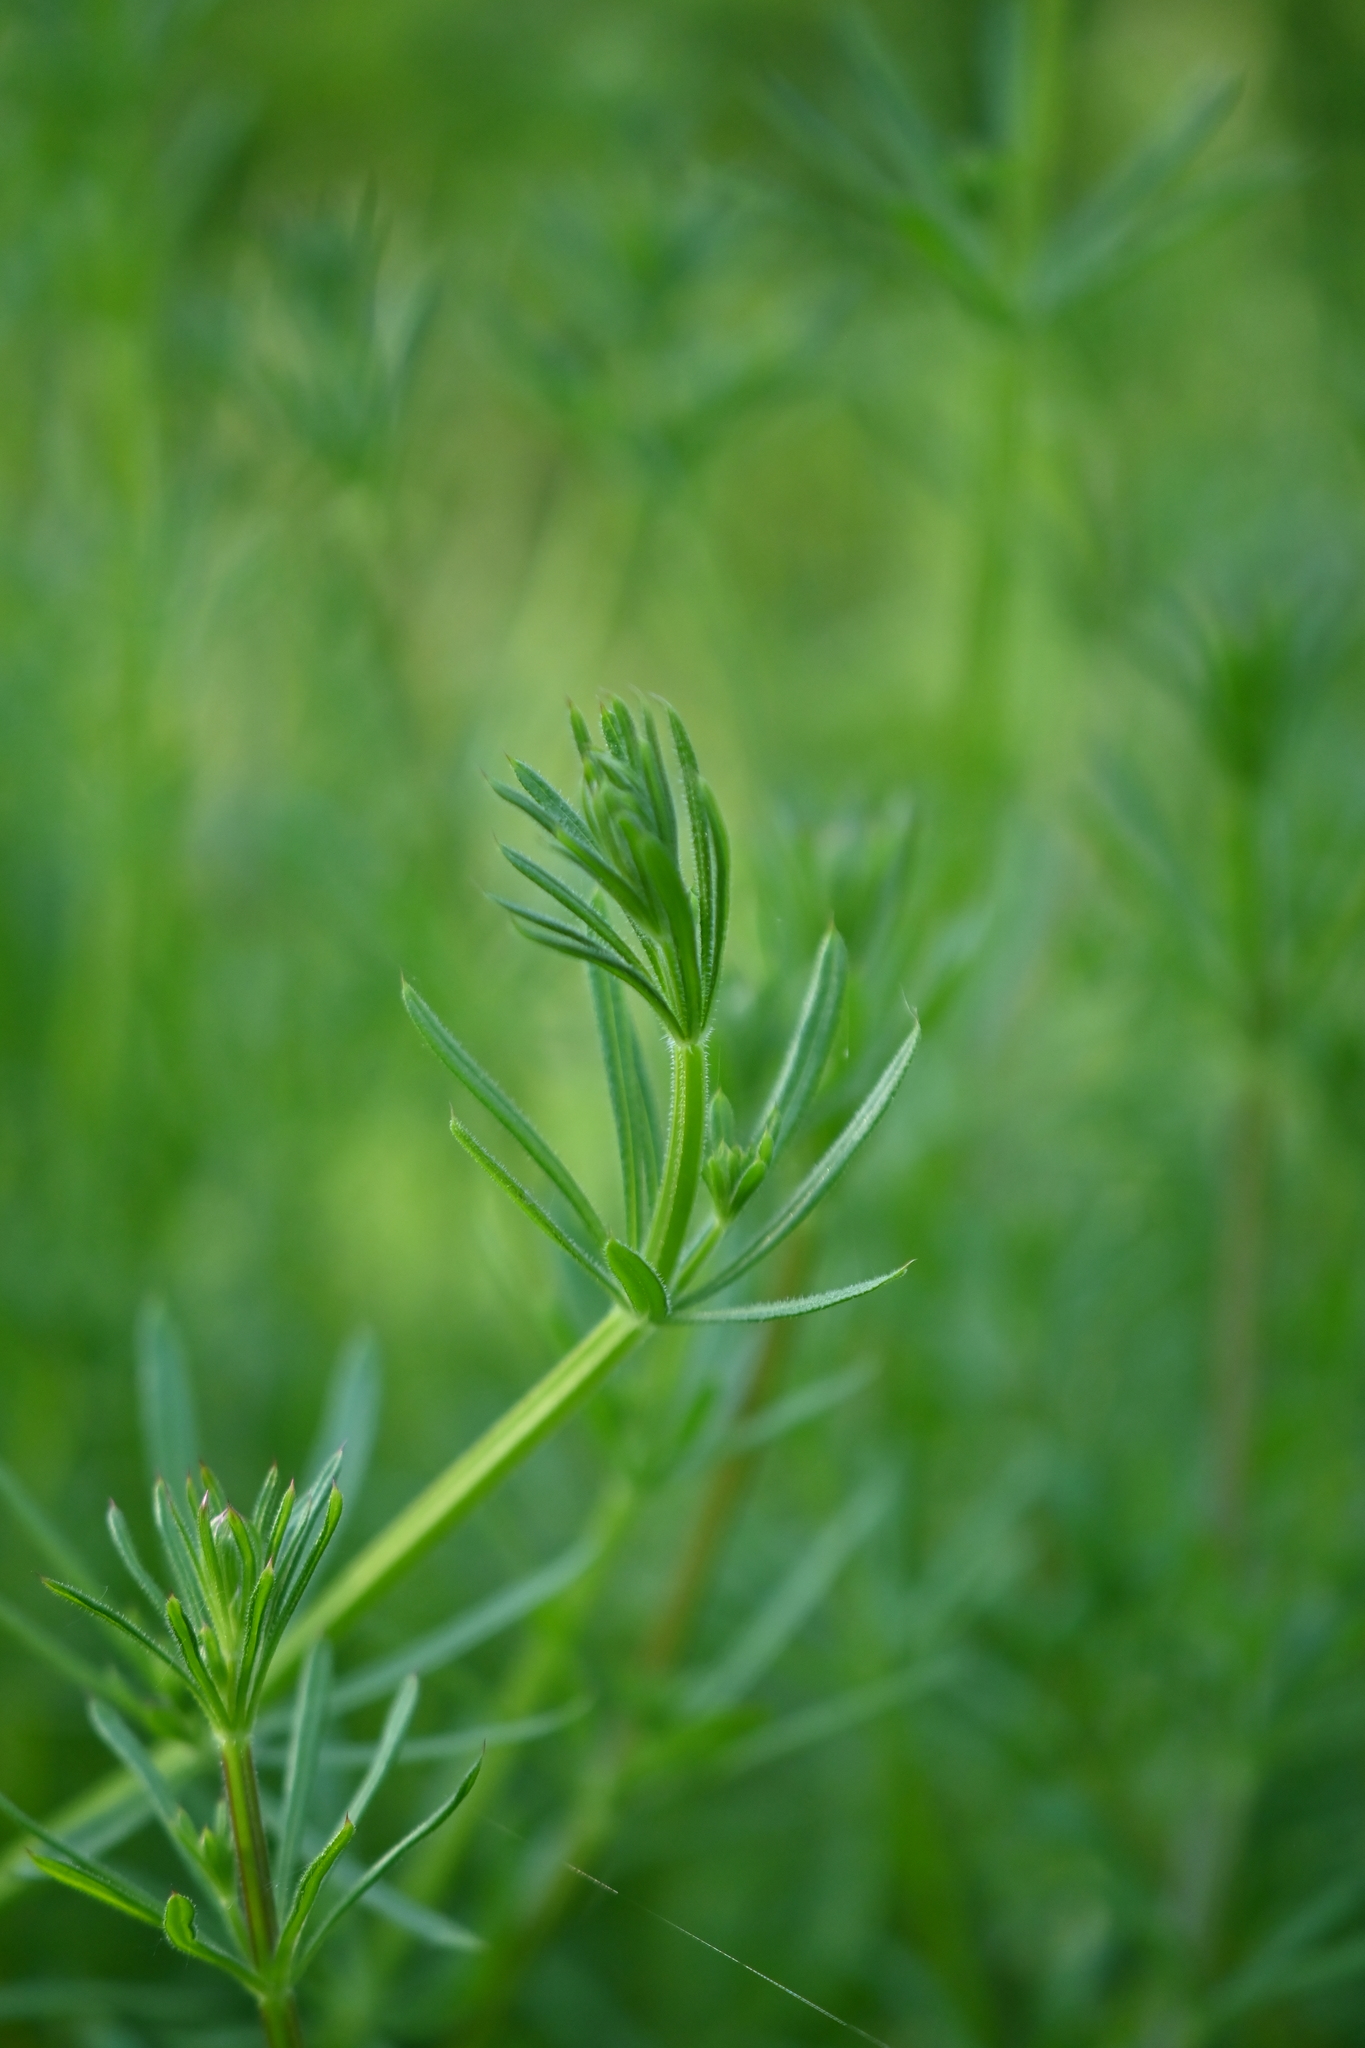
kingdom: Plantae
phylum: Tracheophyta
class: Magnoliopsida
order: Gentianales
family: Rubiaceae
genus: Galium
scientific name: Galium aparine
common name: Cleavers
